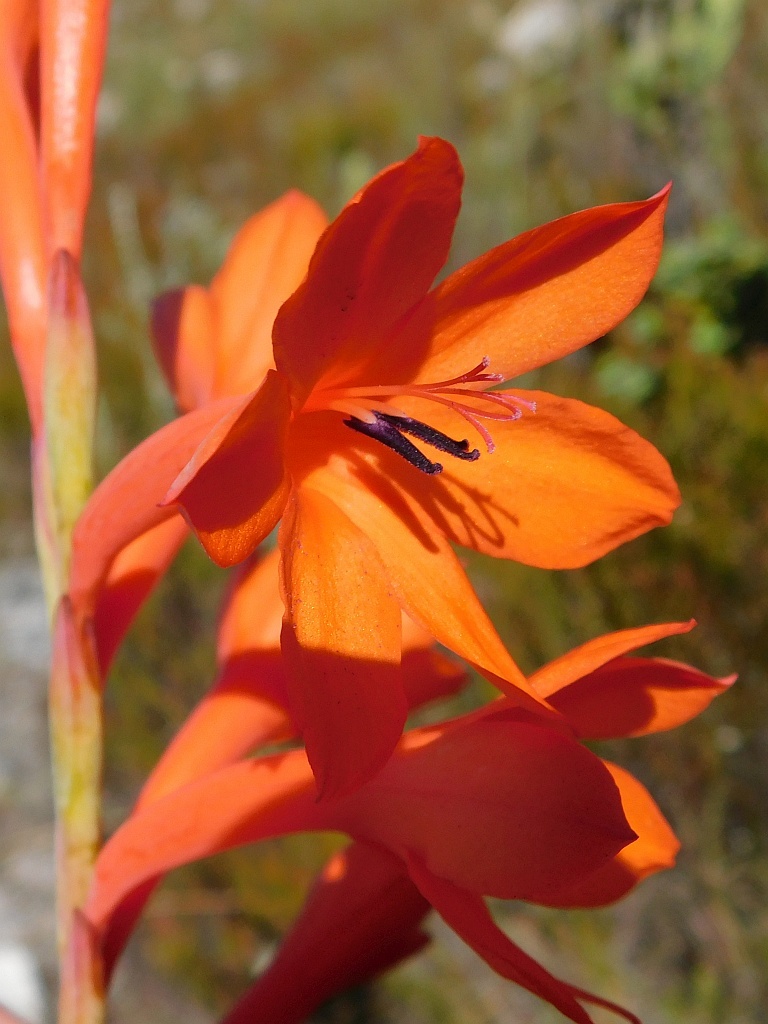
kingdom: Plantae
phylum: Tracheophyta
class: Liliopsida
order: Asparagales
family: Iridaceae
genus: Watsonia
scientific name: Watsonia schlechteri
